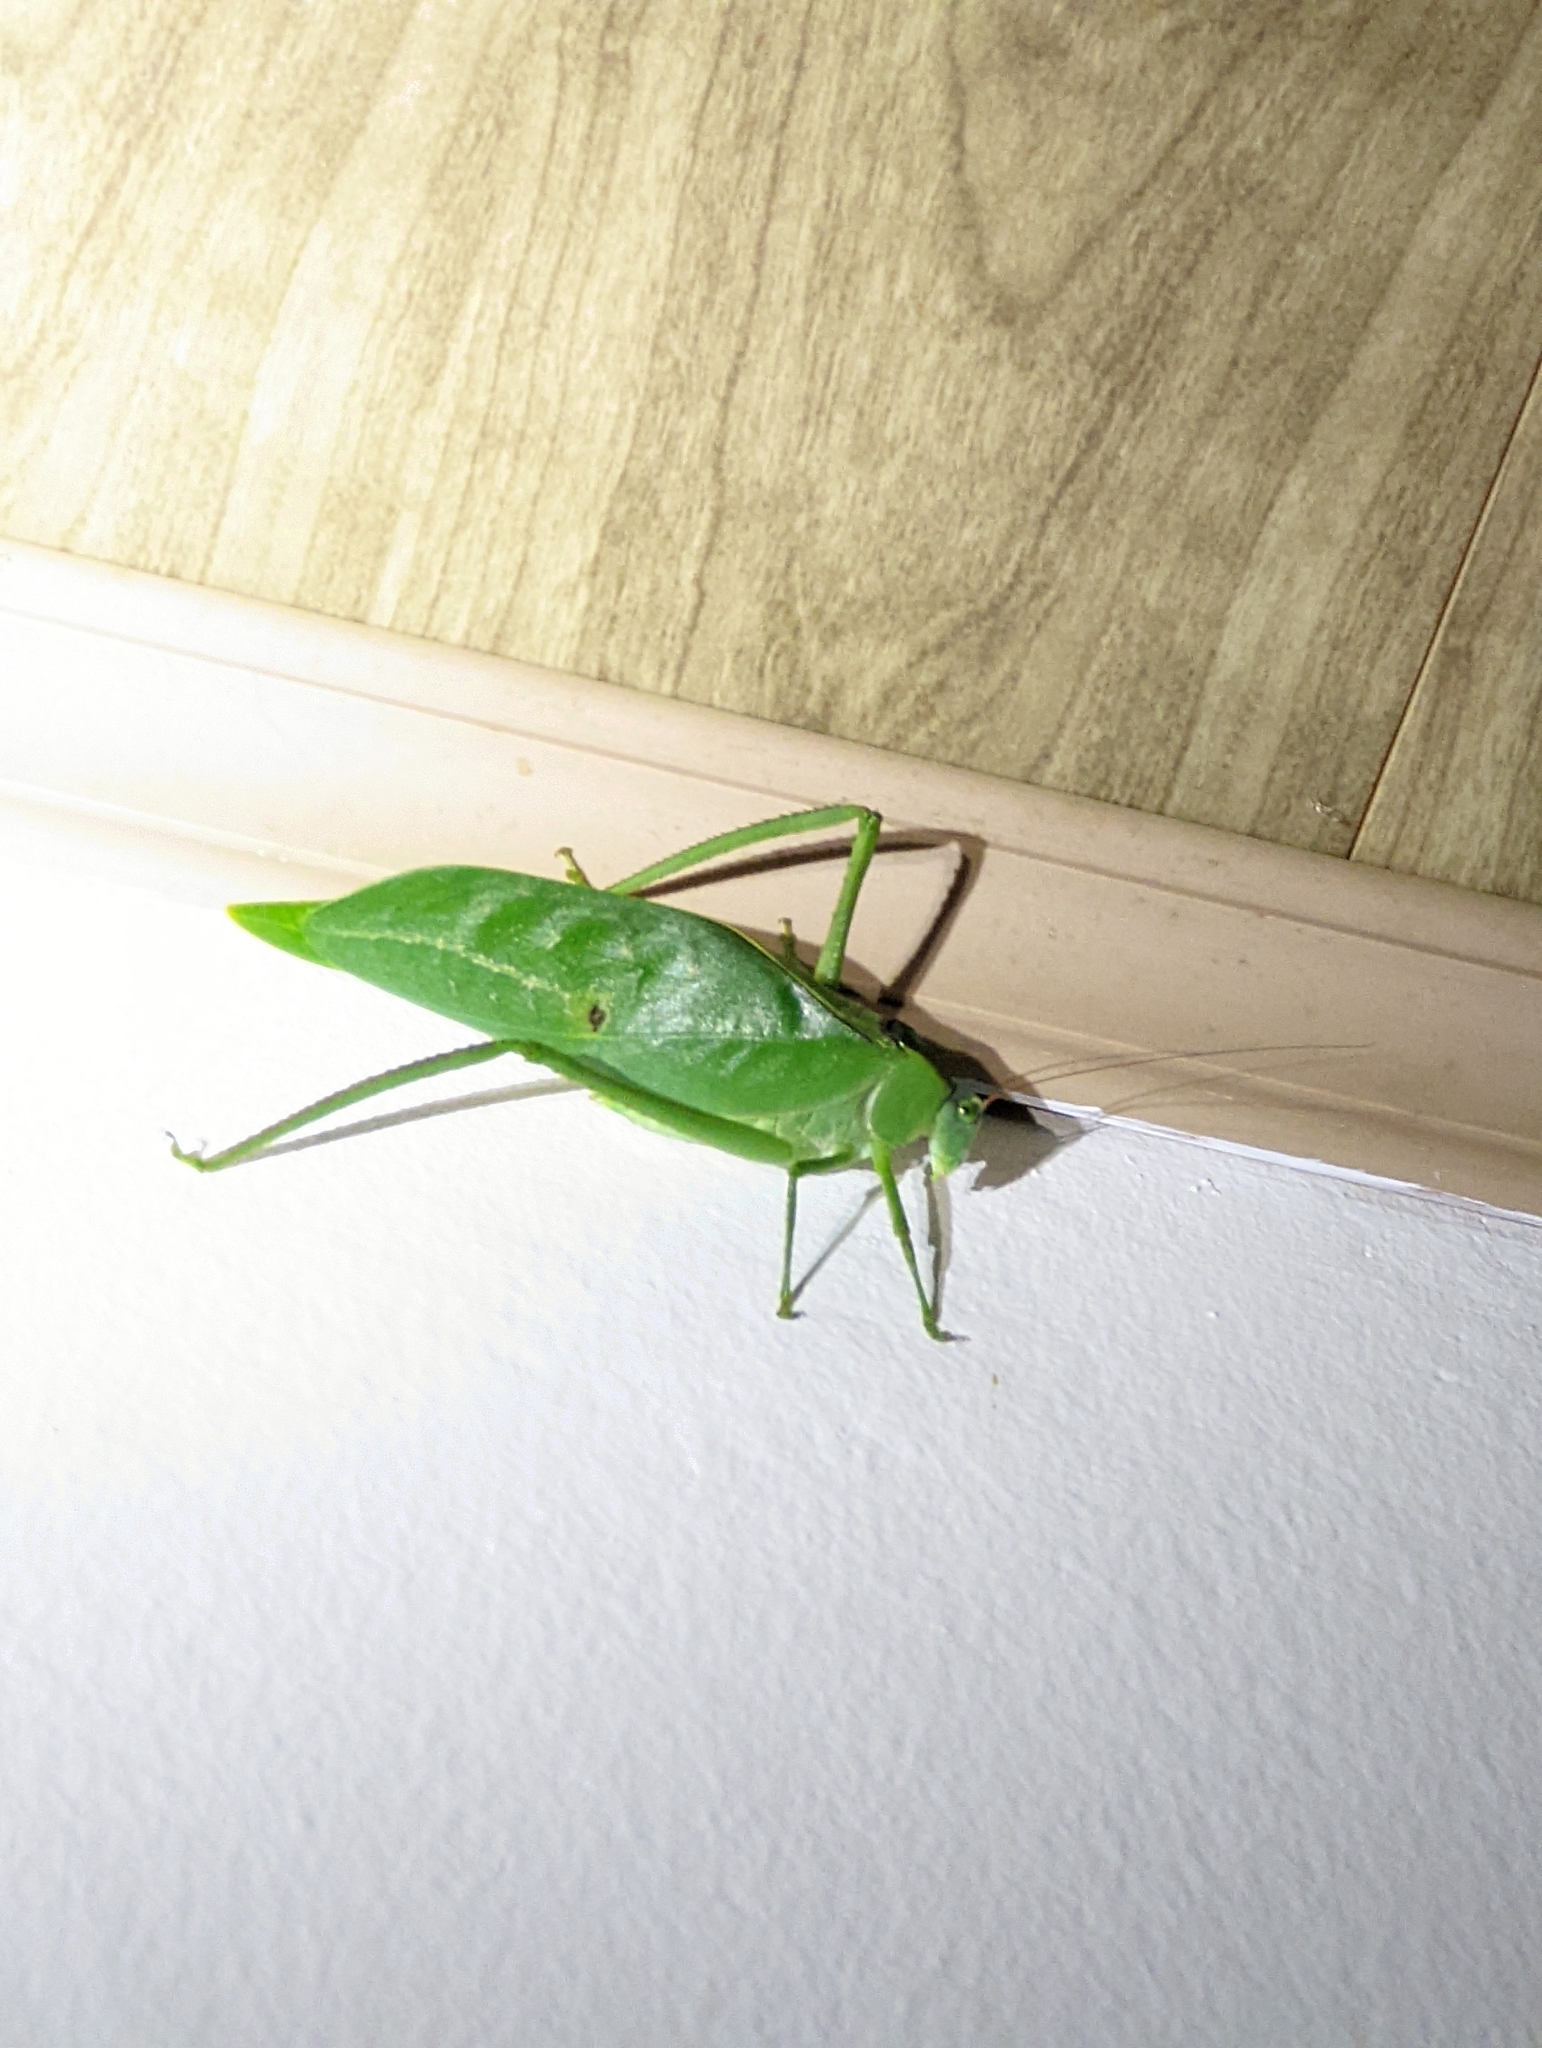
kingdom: Animalia
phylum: Arthropoda
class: Insecta
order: Orthoptera
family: Tettigoniidae
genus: Stilpnochlora
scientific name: Stilpnochlora azteca
